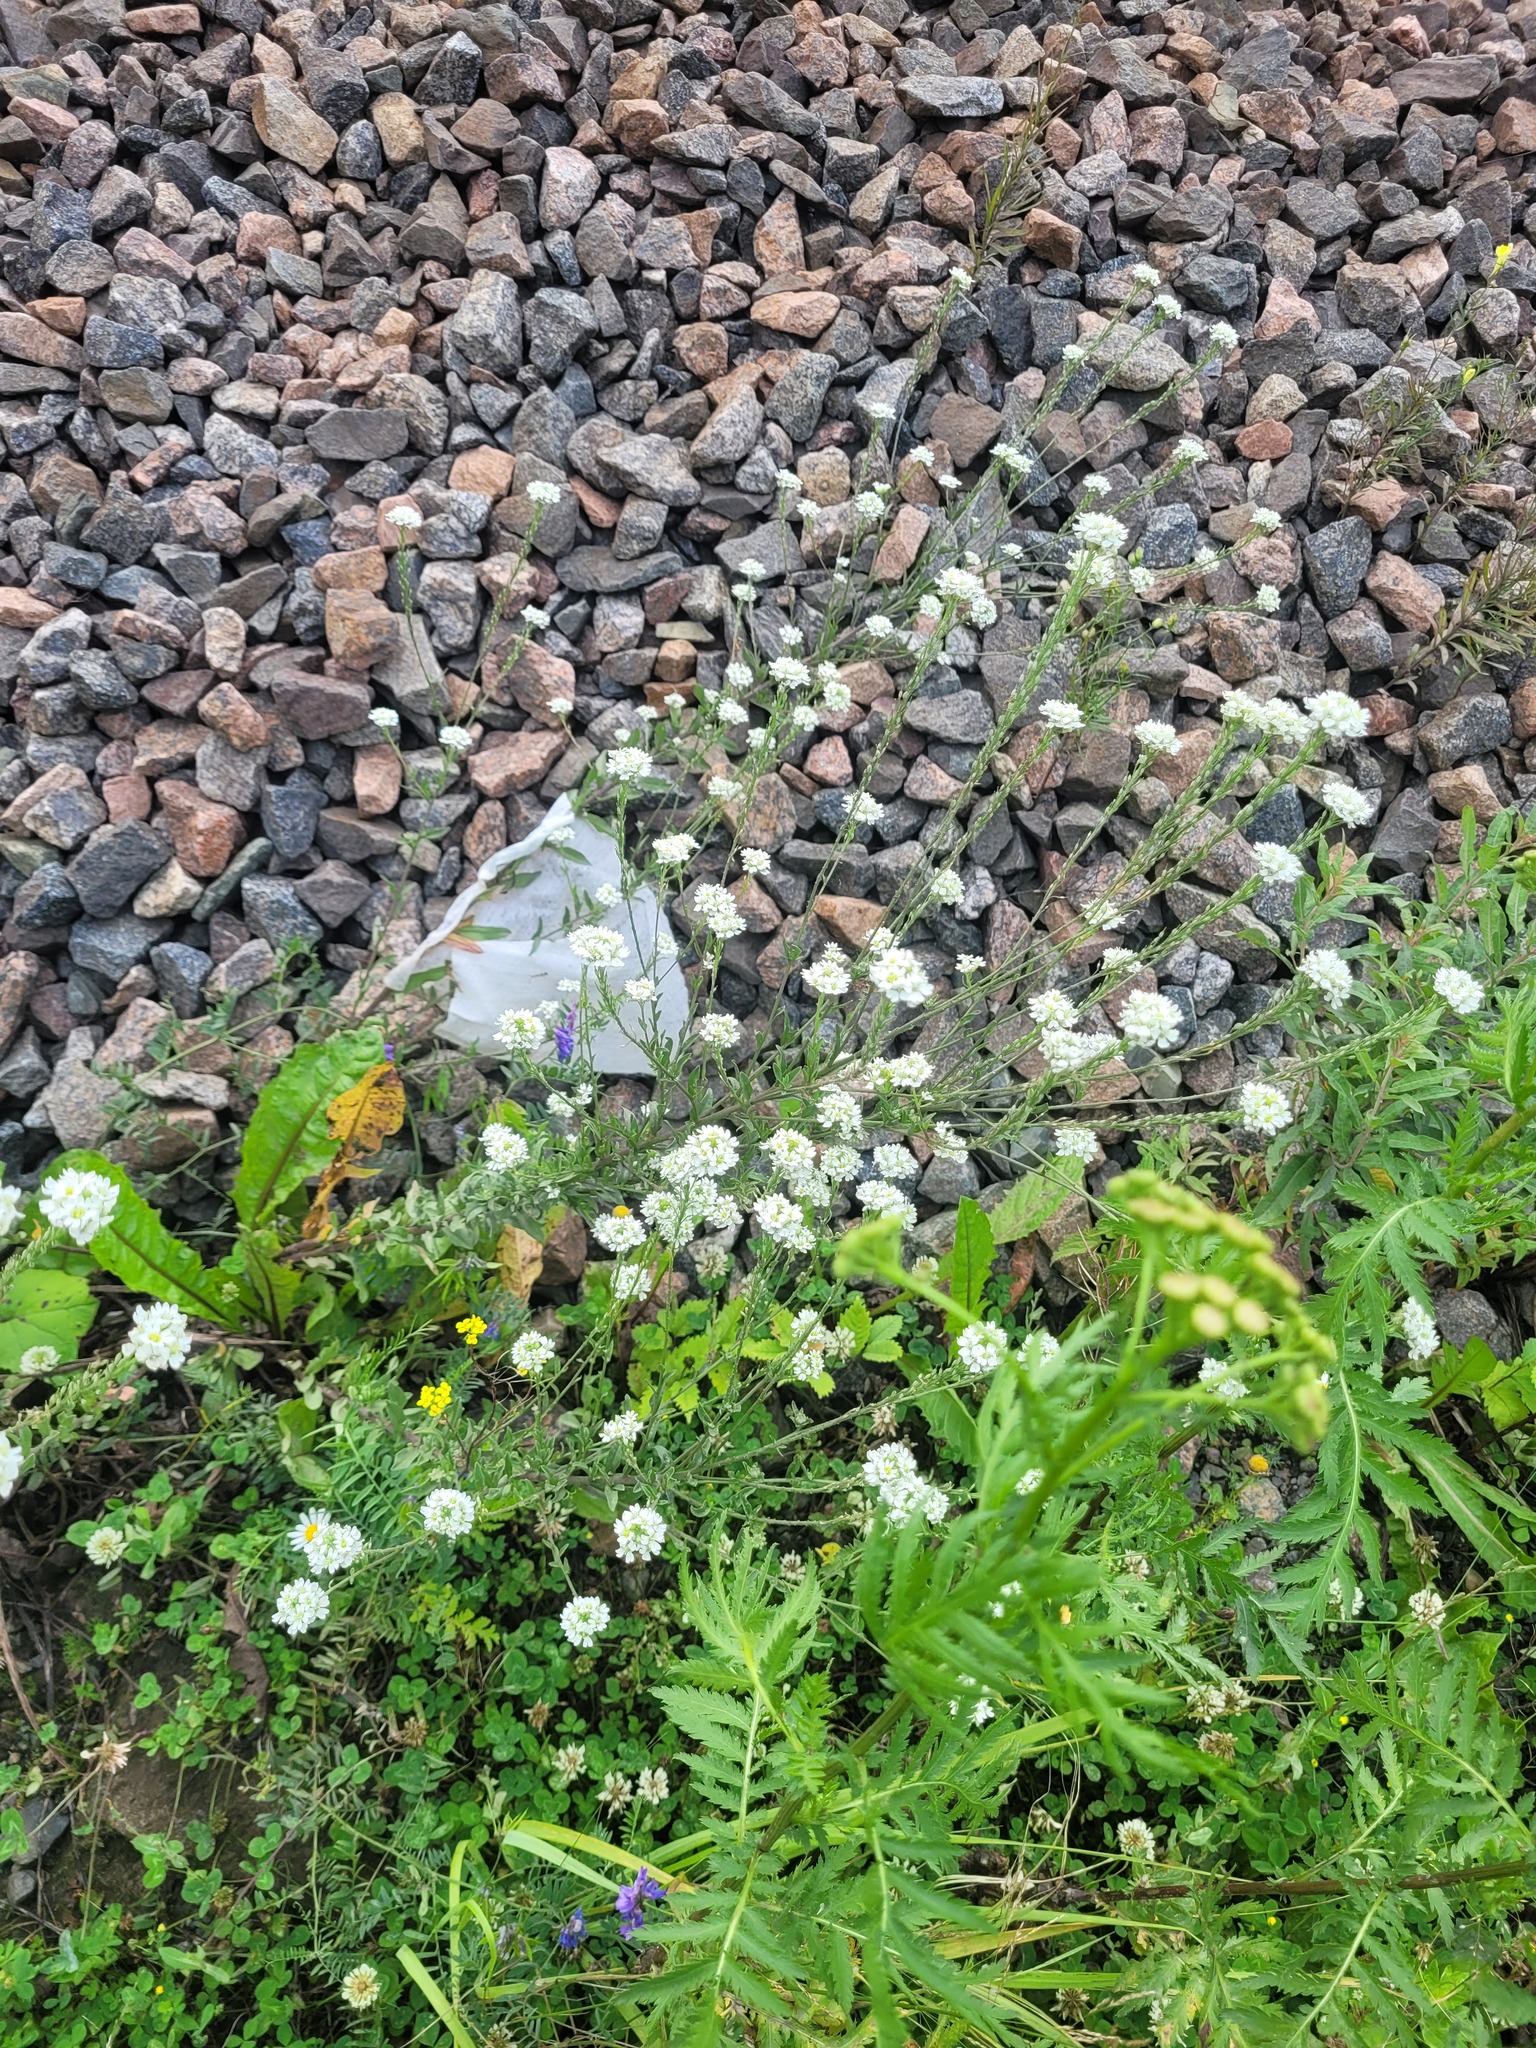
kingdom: Plantae
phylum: Tracheophyta
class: Magnoliopsida
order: Brassicales
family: Brassicaceae
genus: Berteroa
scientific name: Berteroa incana
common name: Hoary alison
